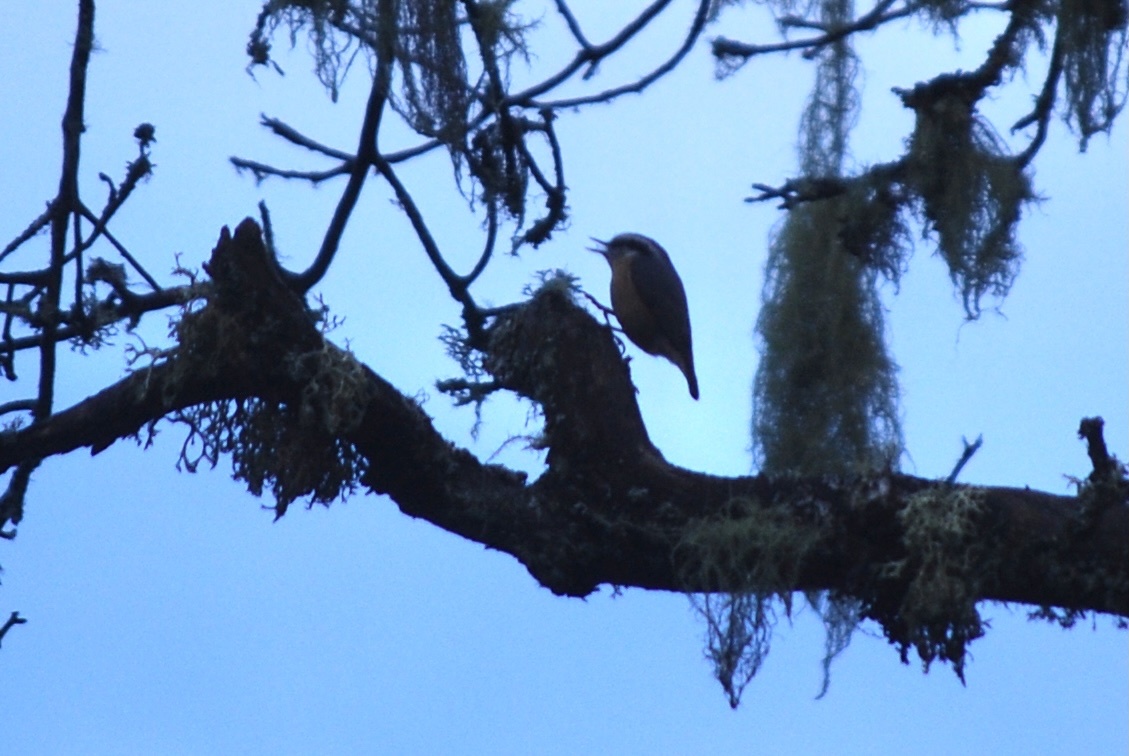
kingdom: Animalia
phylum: Chordata
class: Aves
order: Passeriformes
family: Sittidae
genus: Sitta
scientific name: Sitta canadensis
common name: Red-breasted nuthatch
